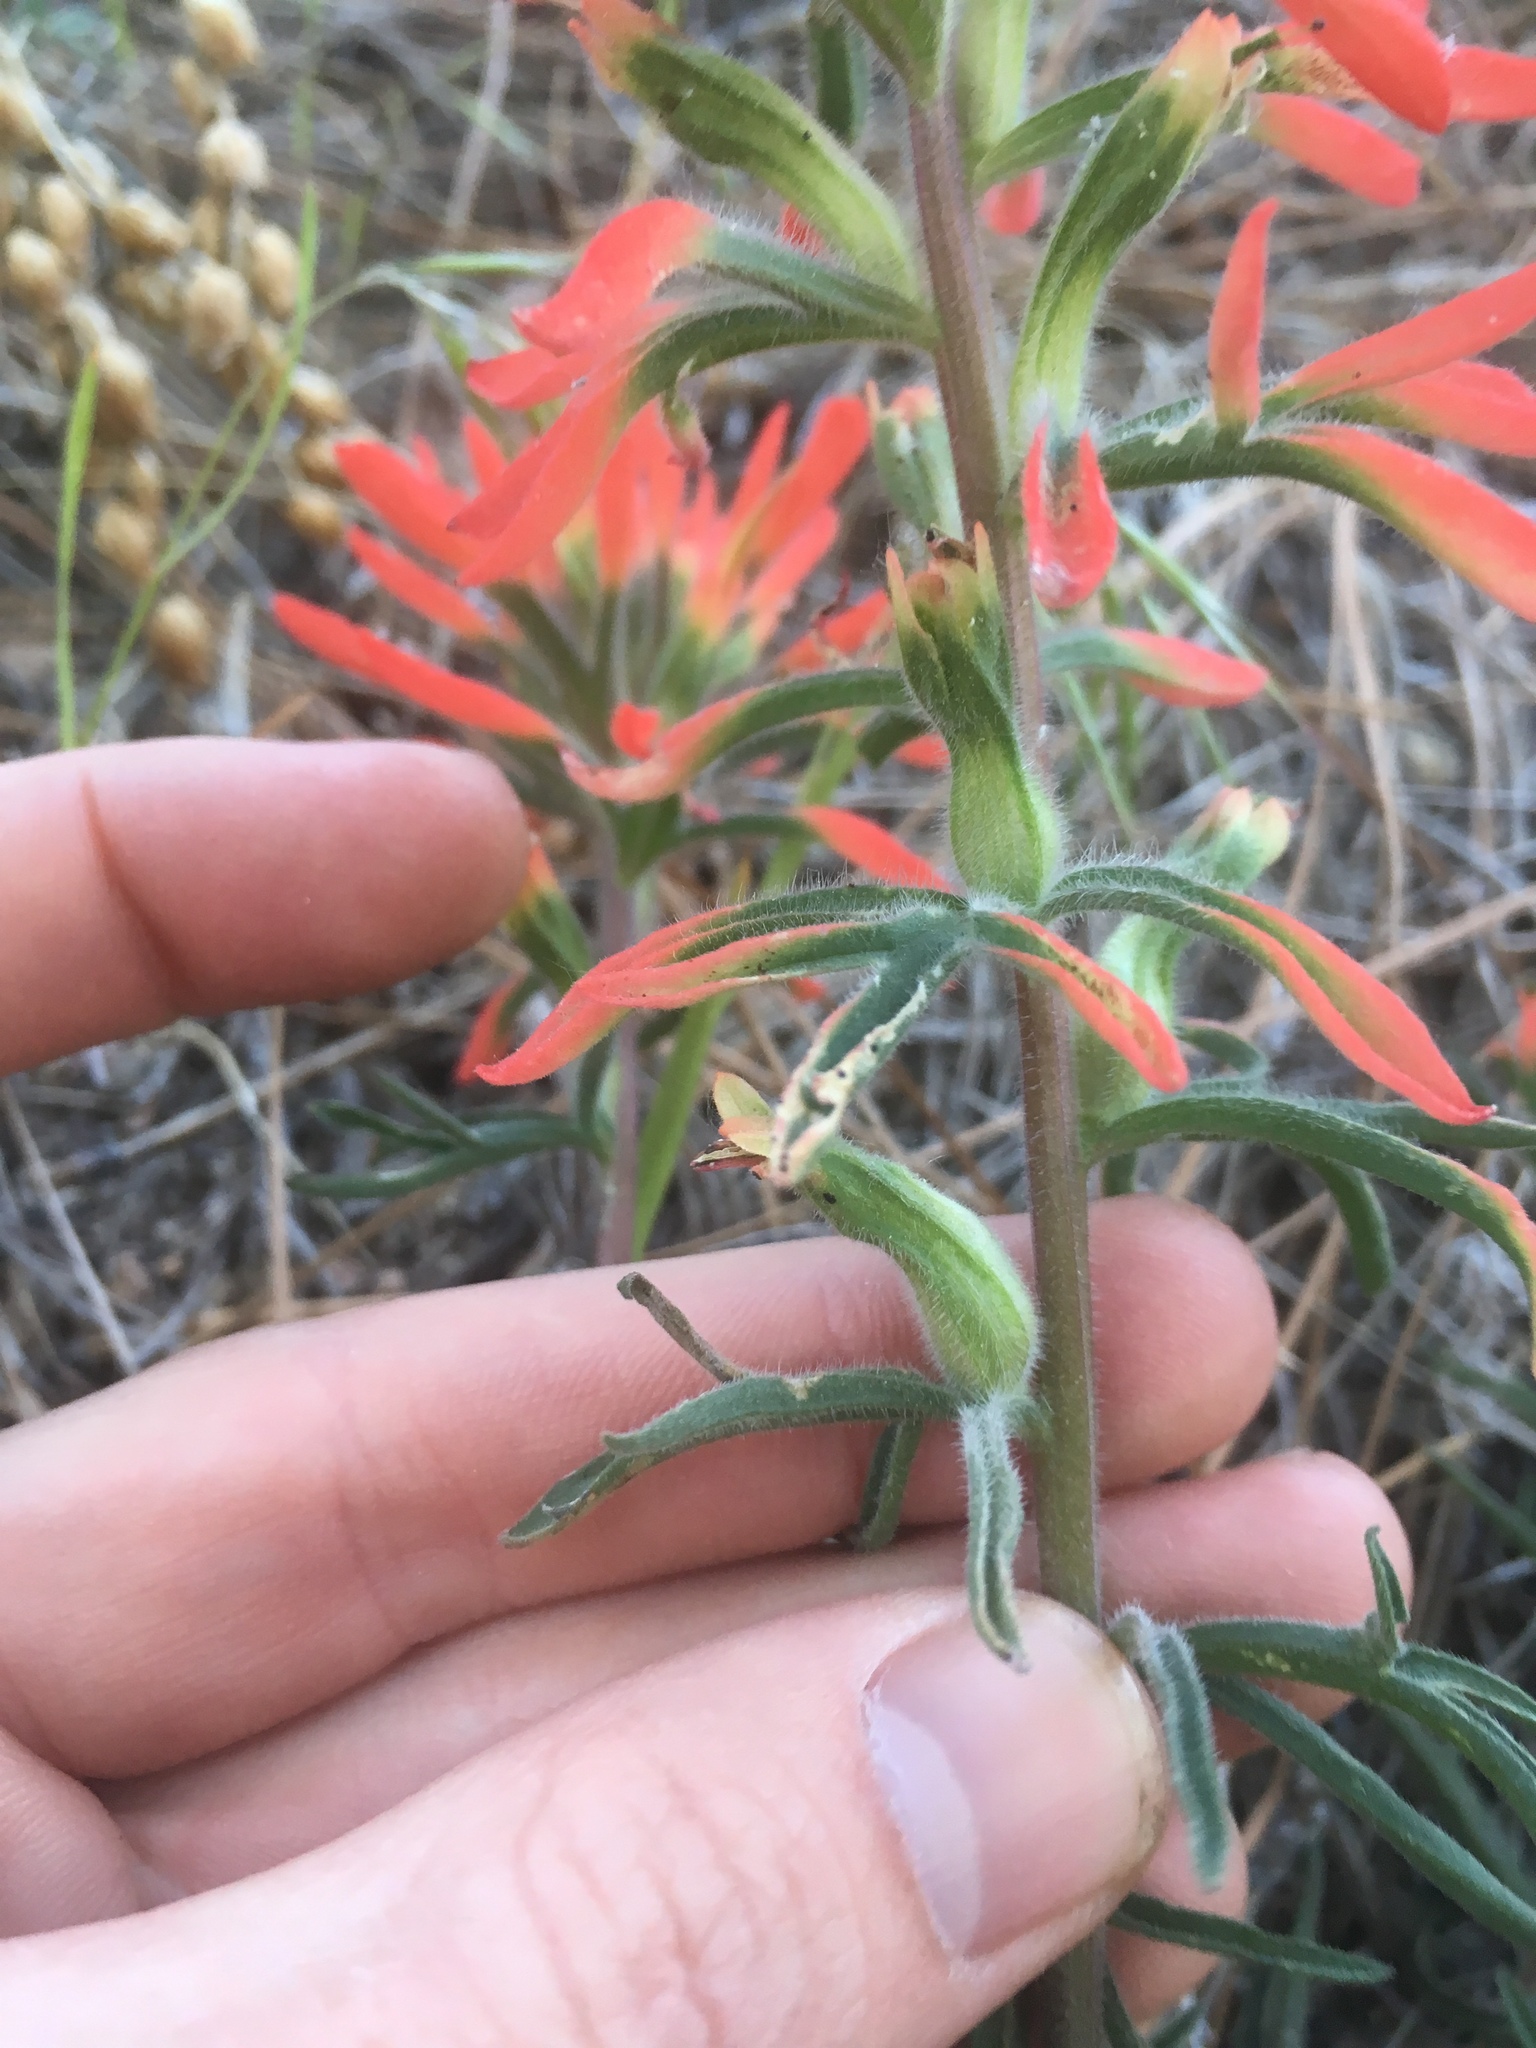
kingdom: Plantae
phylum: Tracheophyta
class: Magnoliopsida
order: Lamiales
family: Orobanchaceae
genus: Castilleja
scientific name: Castilleja chromosa
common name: Desert paintbrush
